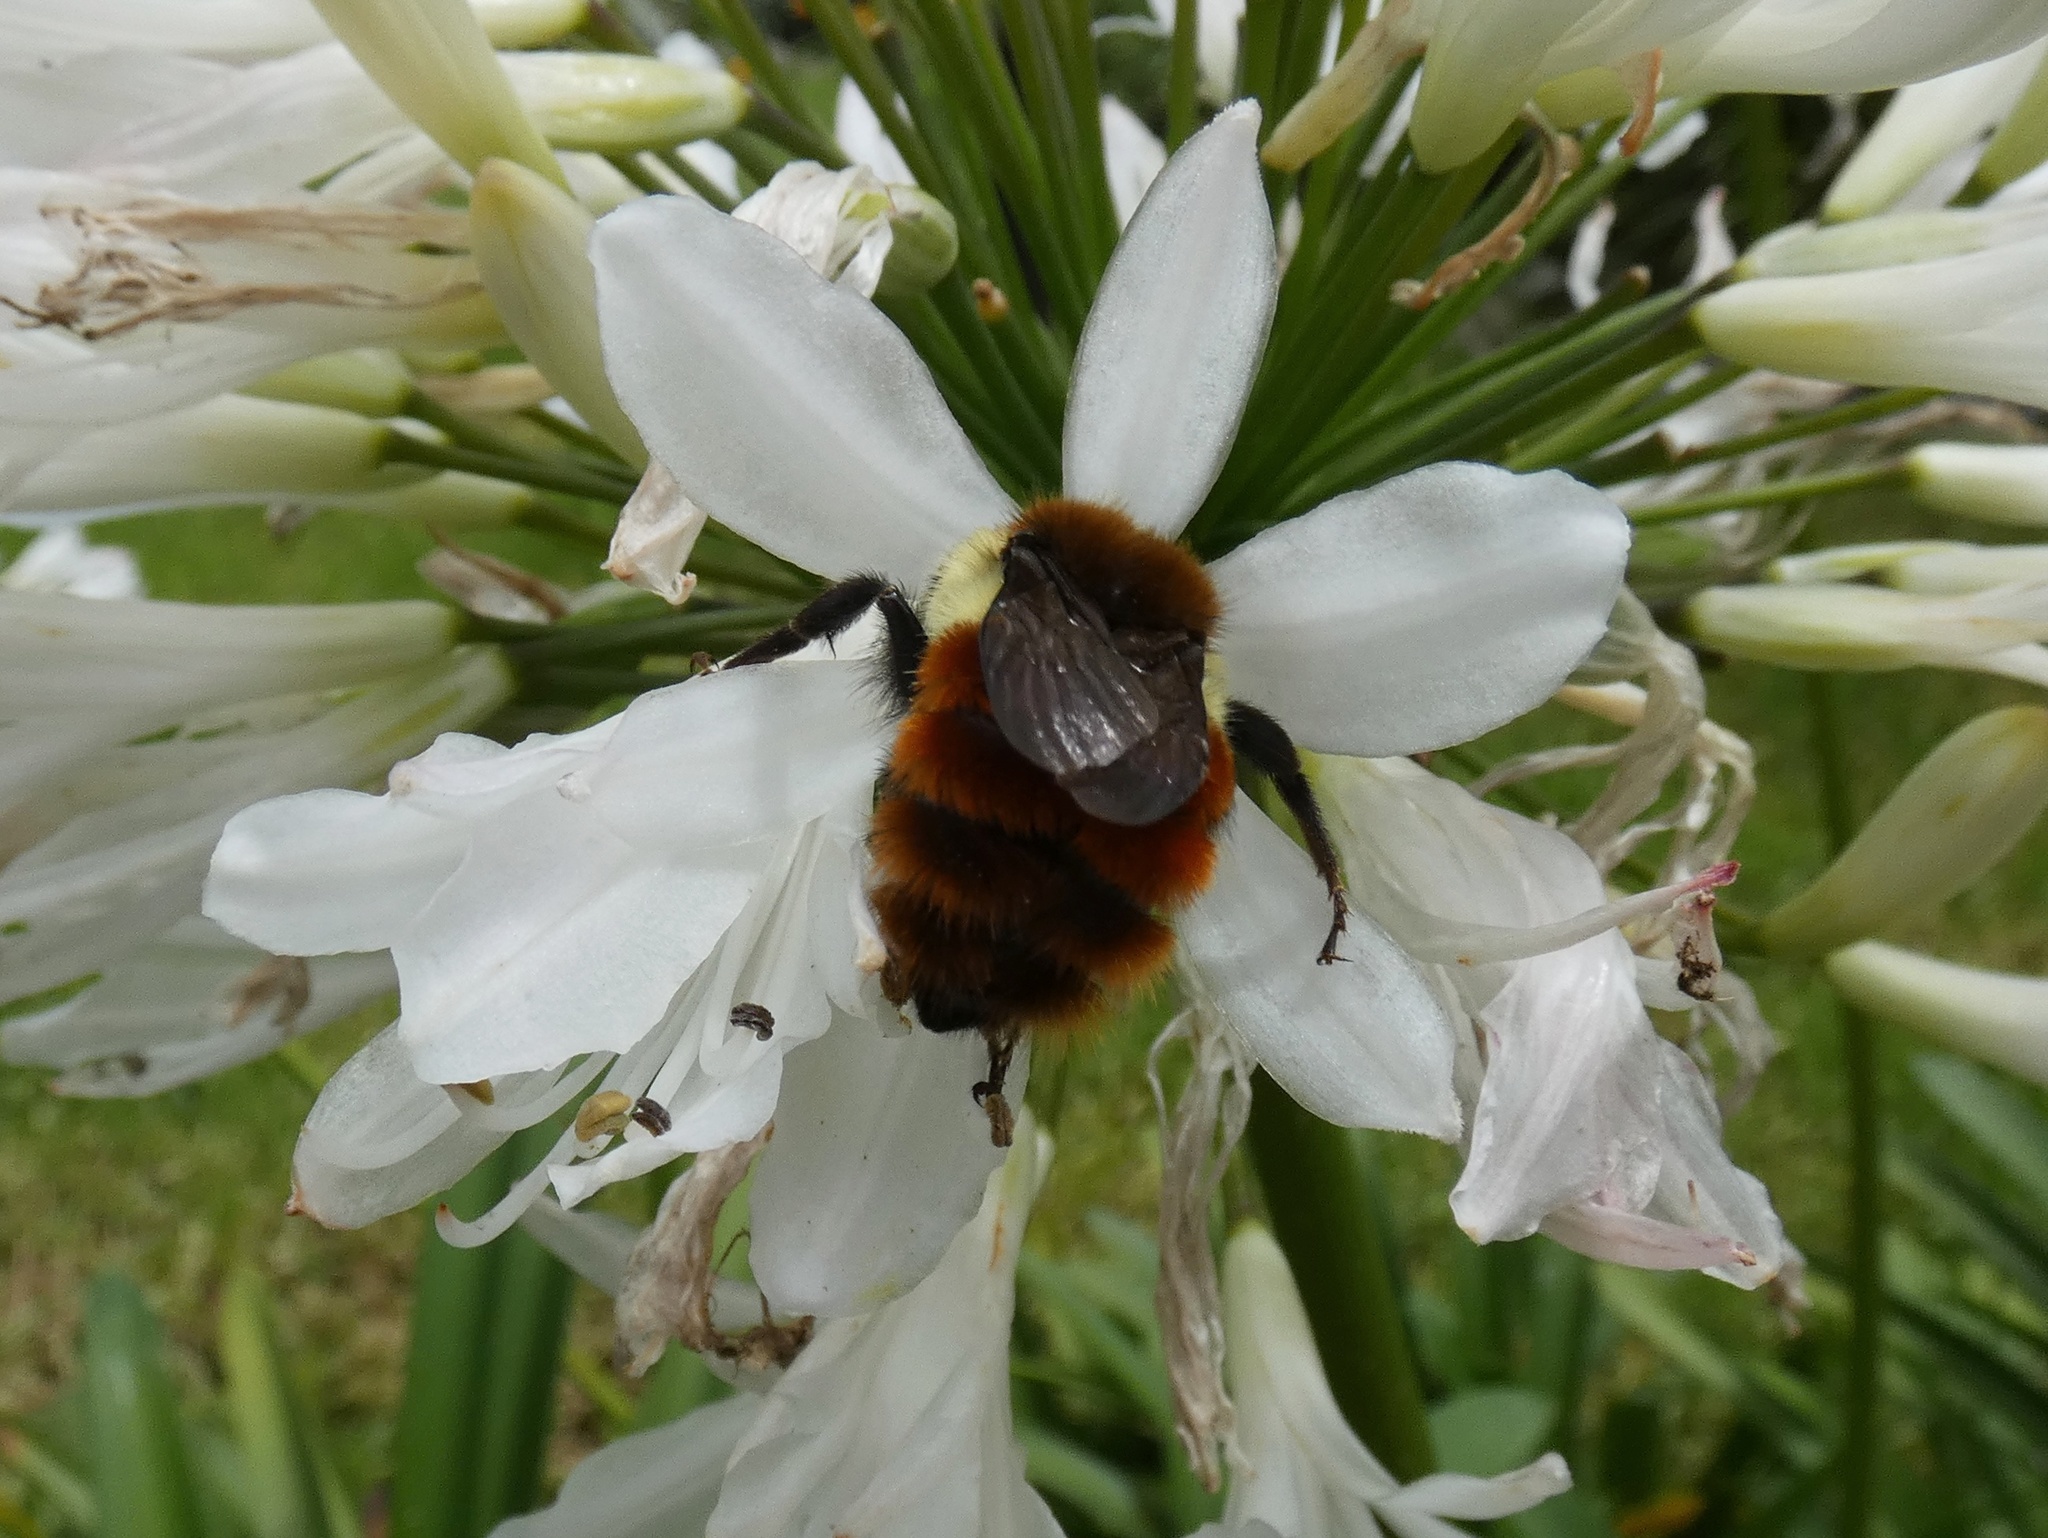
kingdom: Animalia
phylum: Arthropoda
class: Insecta
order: Hymenoptera
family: Apidae
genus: Bombus
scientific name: Bombus ephippiatus
